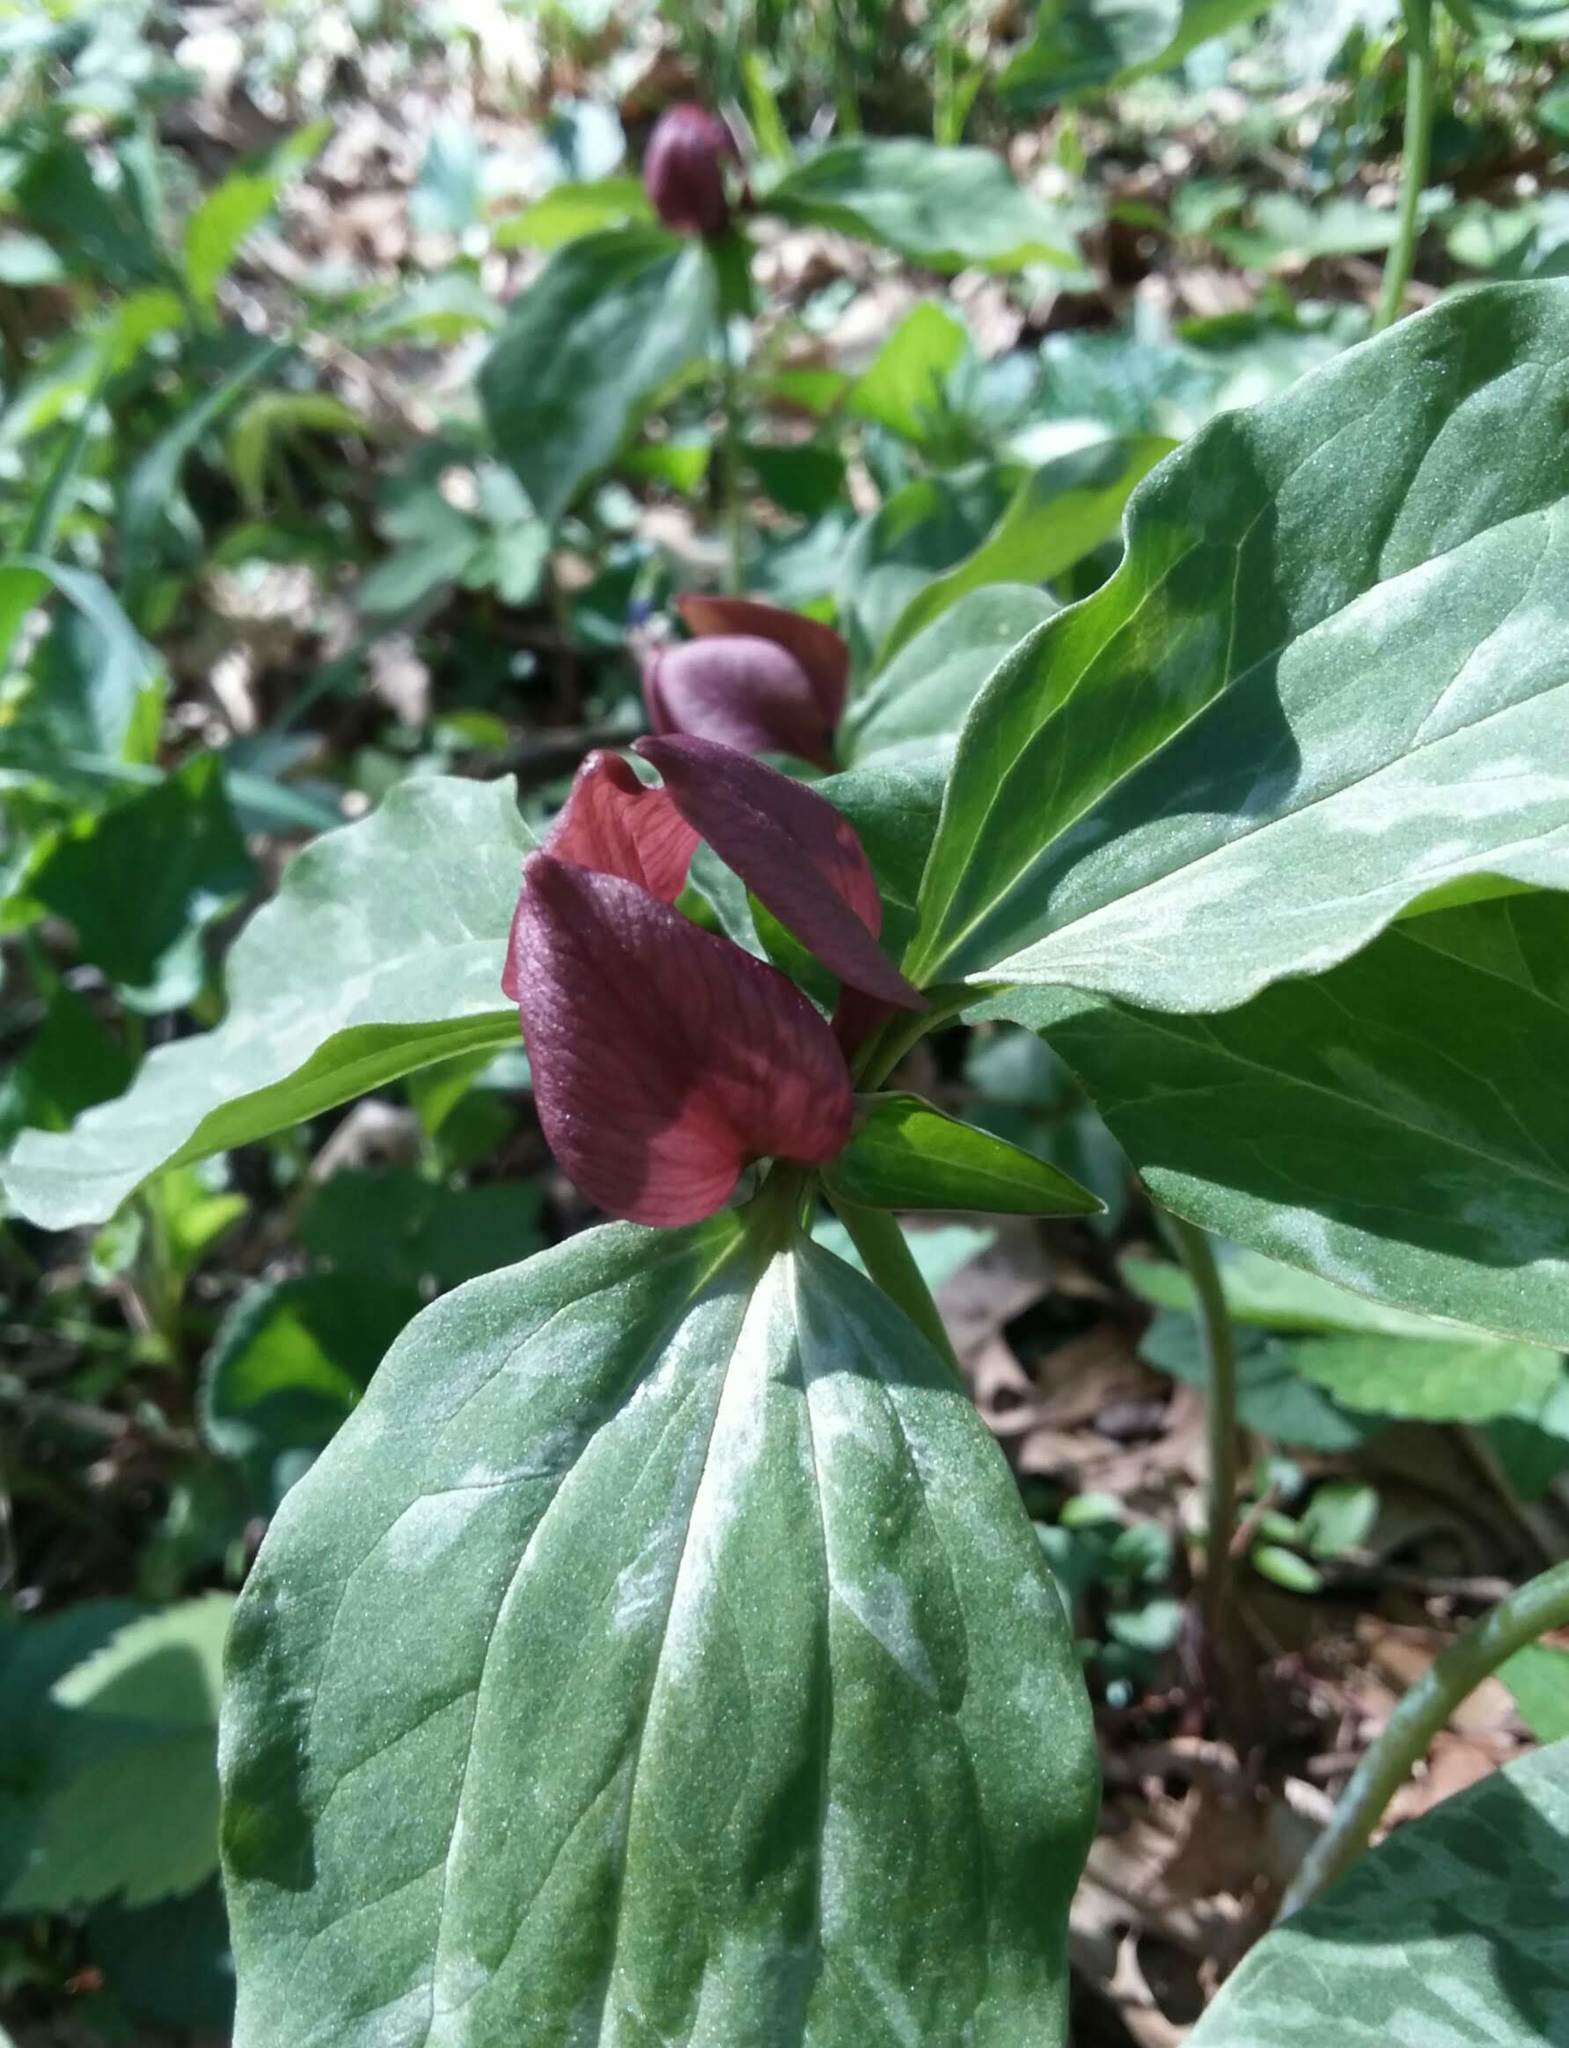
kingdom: Plantae
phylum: Tracheophyta
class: Liliopsida
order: Liliales
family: Melanthiaceae
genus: Trillium
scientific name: Trillium recurvatum
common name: Bloody butcher
